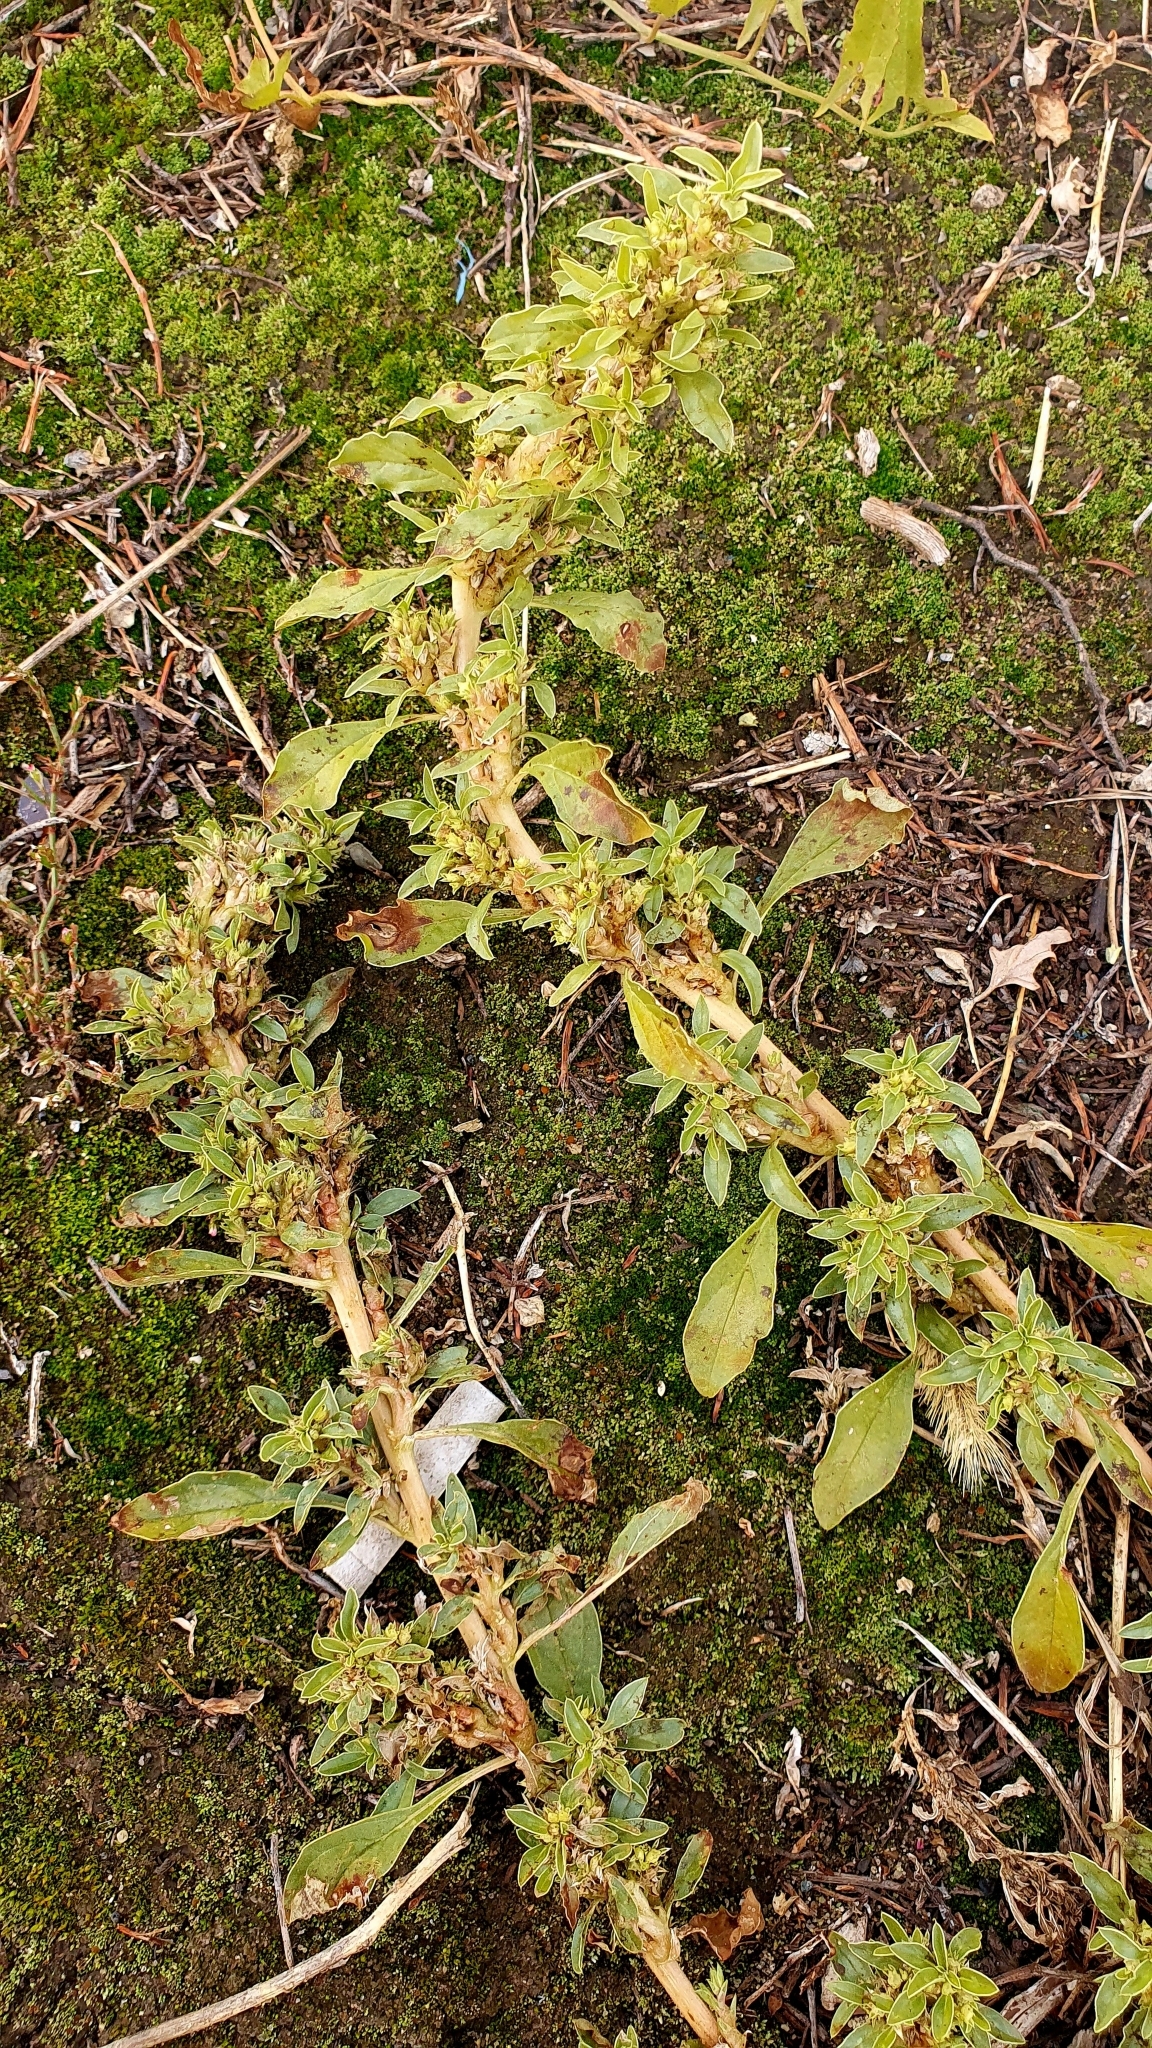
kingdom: Plantae
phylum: Tracheophyta
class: Magnoliopsida
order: Caryophyllales
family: Amaranthaceae
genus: Amaranthus
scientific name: Amaranthus blitoides
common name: Prostrate pigweed
